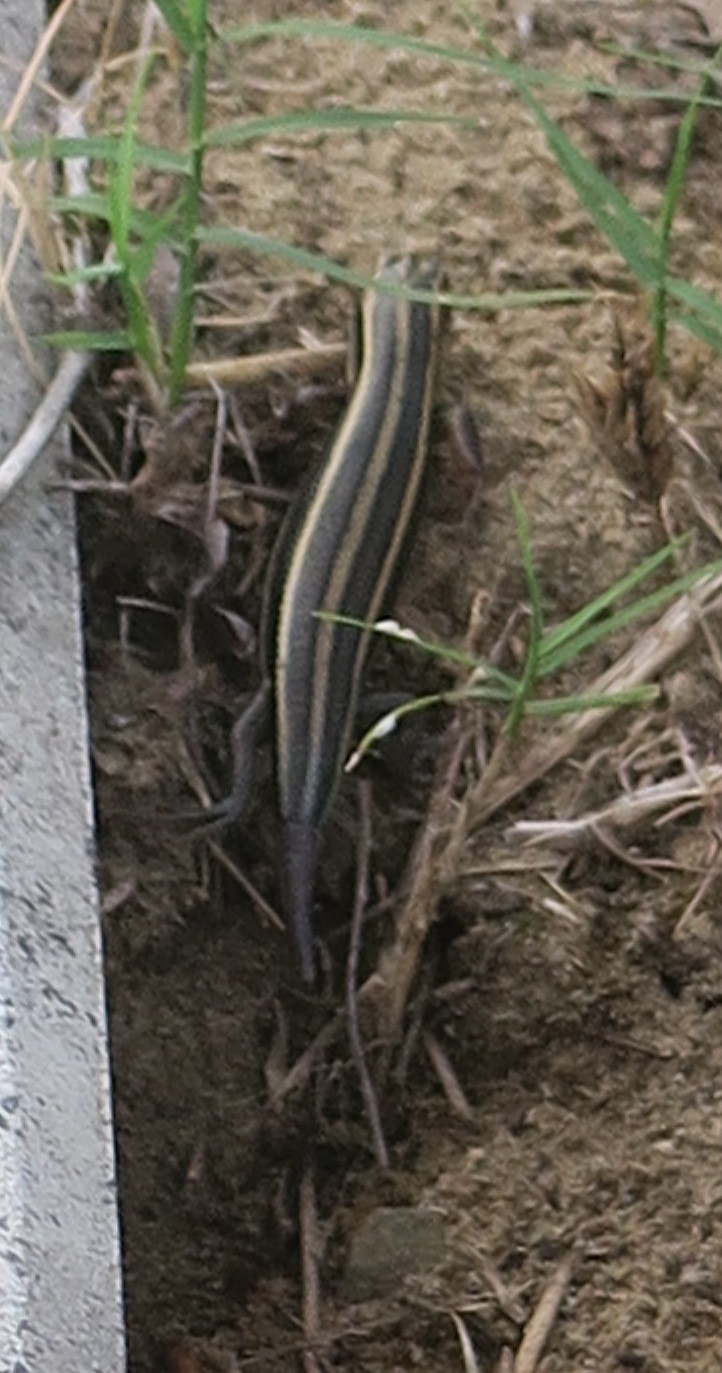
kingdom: Animalia
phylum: Chordata
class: Squamata
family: Scincidae
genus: Plestiodon
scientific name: Plestiodon japonicus
